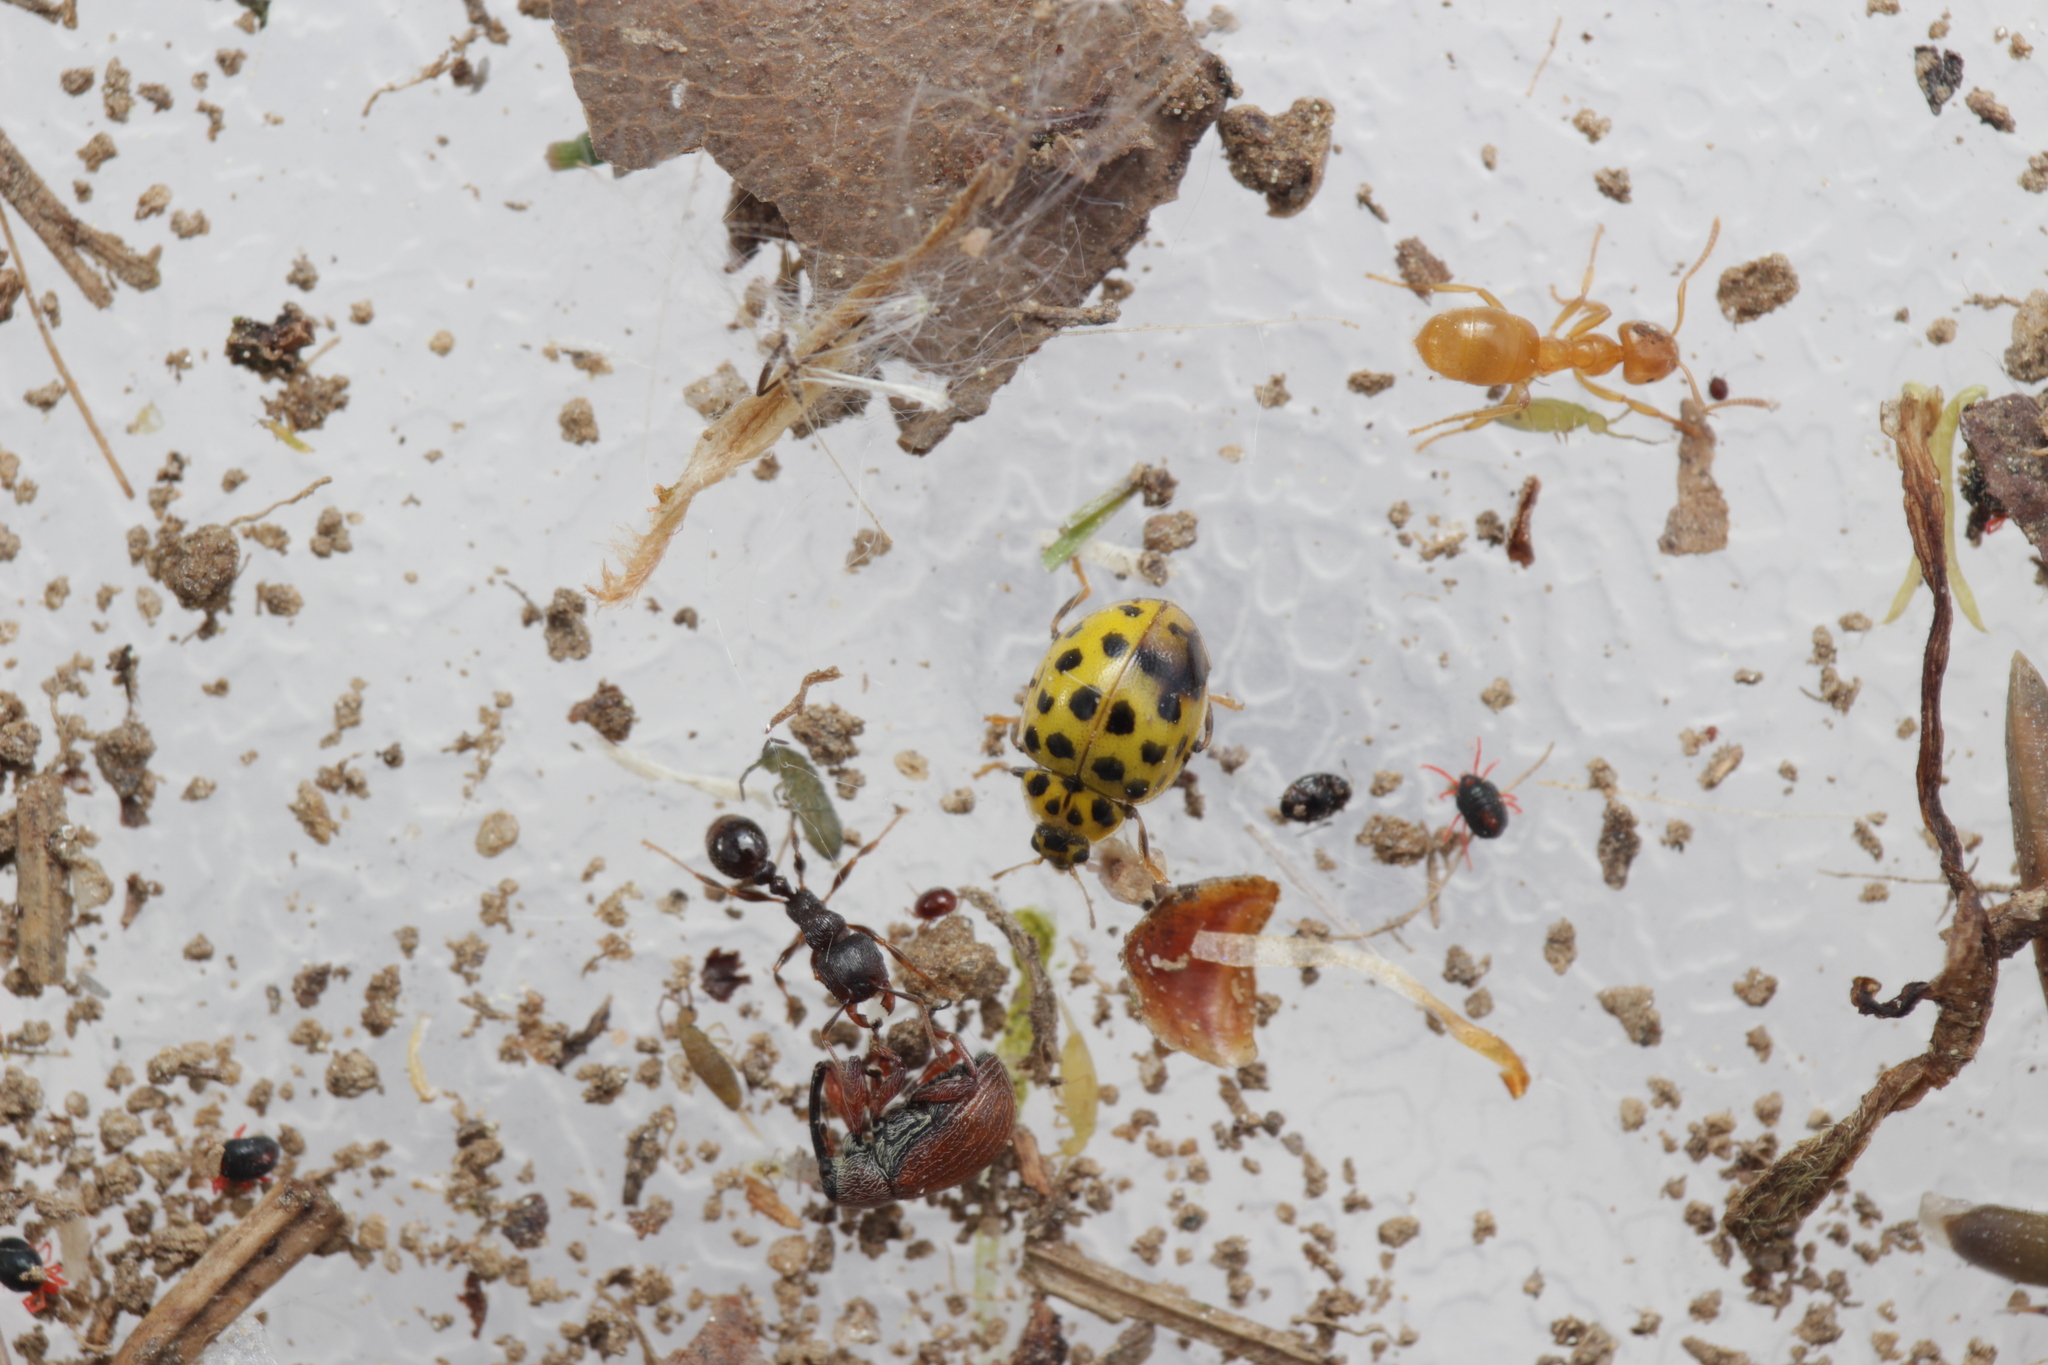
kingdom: Animalia
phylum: Arthropoda
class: Insecta
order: Coleoptera
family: Coccinellidae
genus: Psyllobora
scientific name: Psyllobora vigintiduopunctata
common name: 22-spot ladybird
